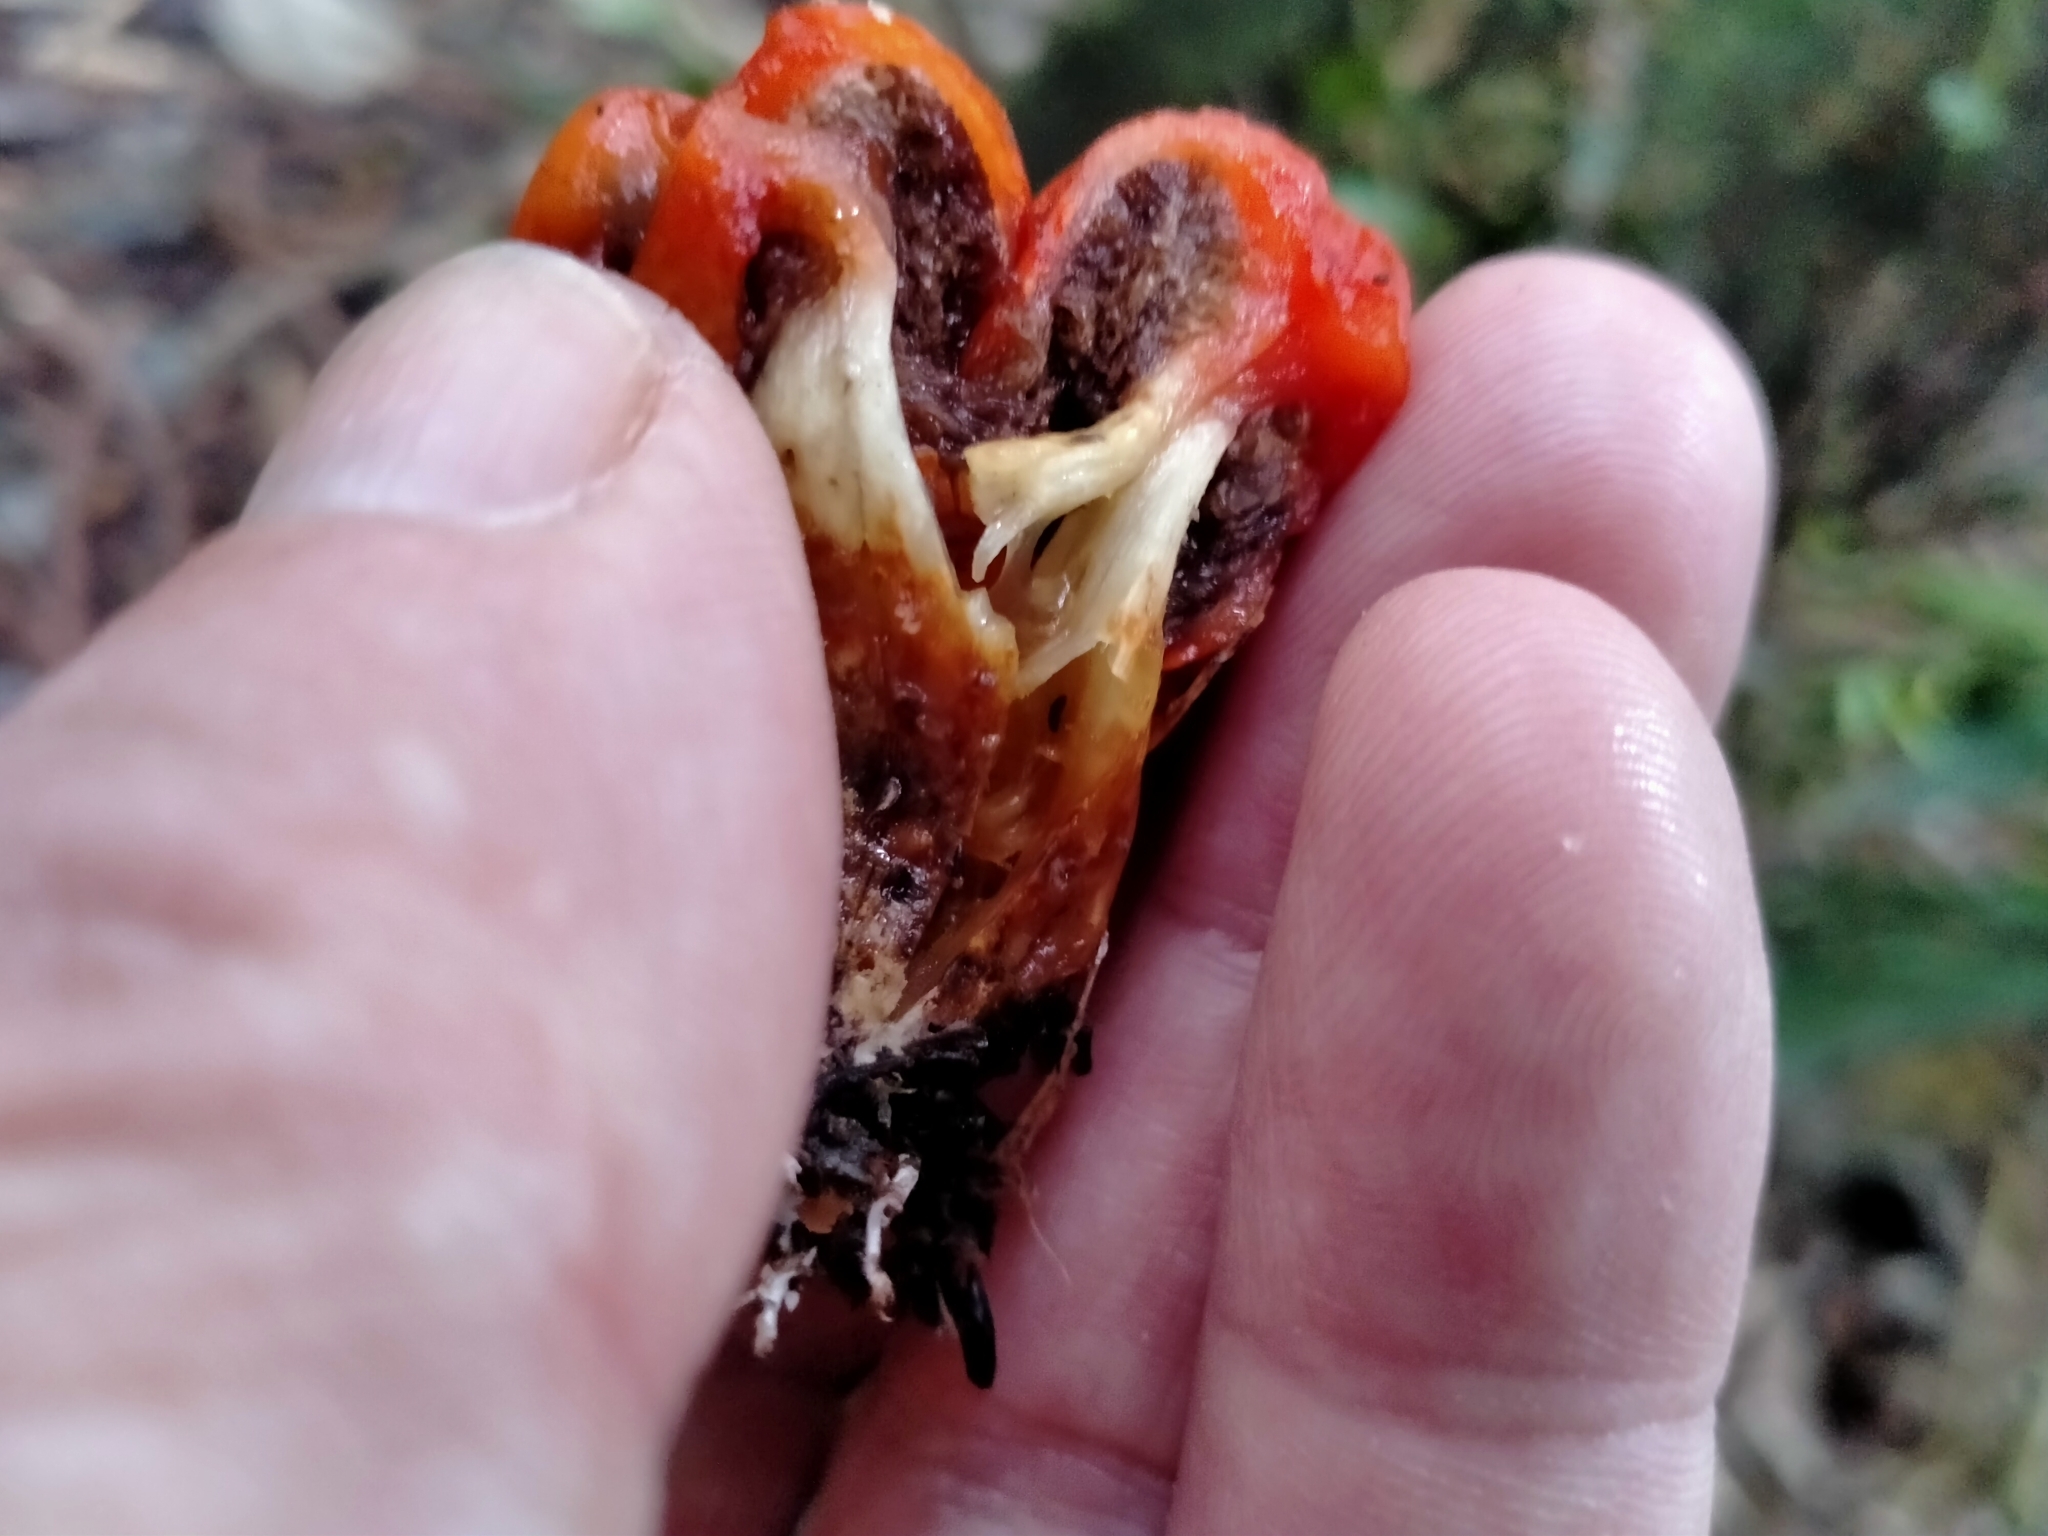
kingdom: Fungi
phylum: Basidiomycota
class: Agaricomycetes
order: Agaricales
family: Strophariaceae
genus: Leratiomyces
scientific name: Leratiomyces erythrocephalus
